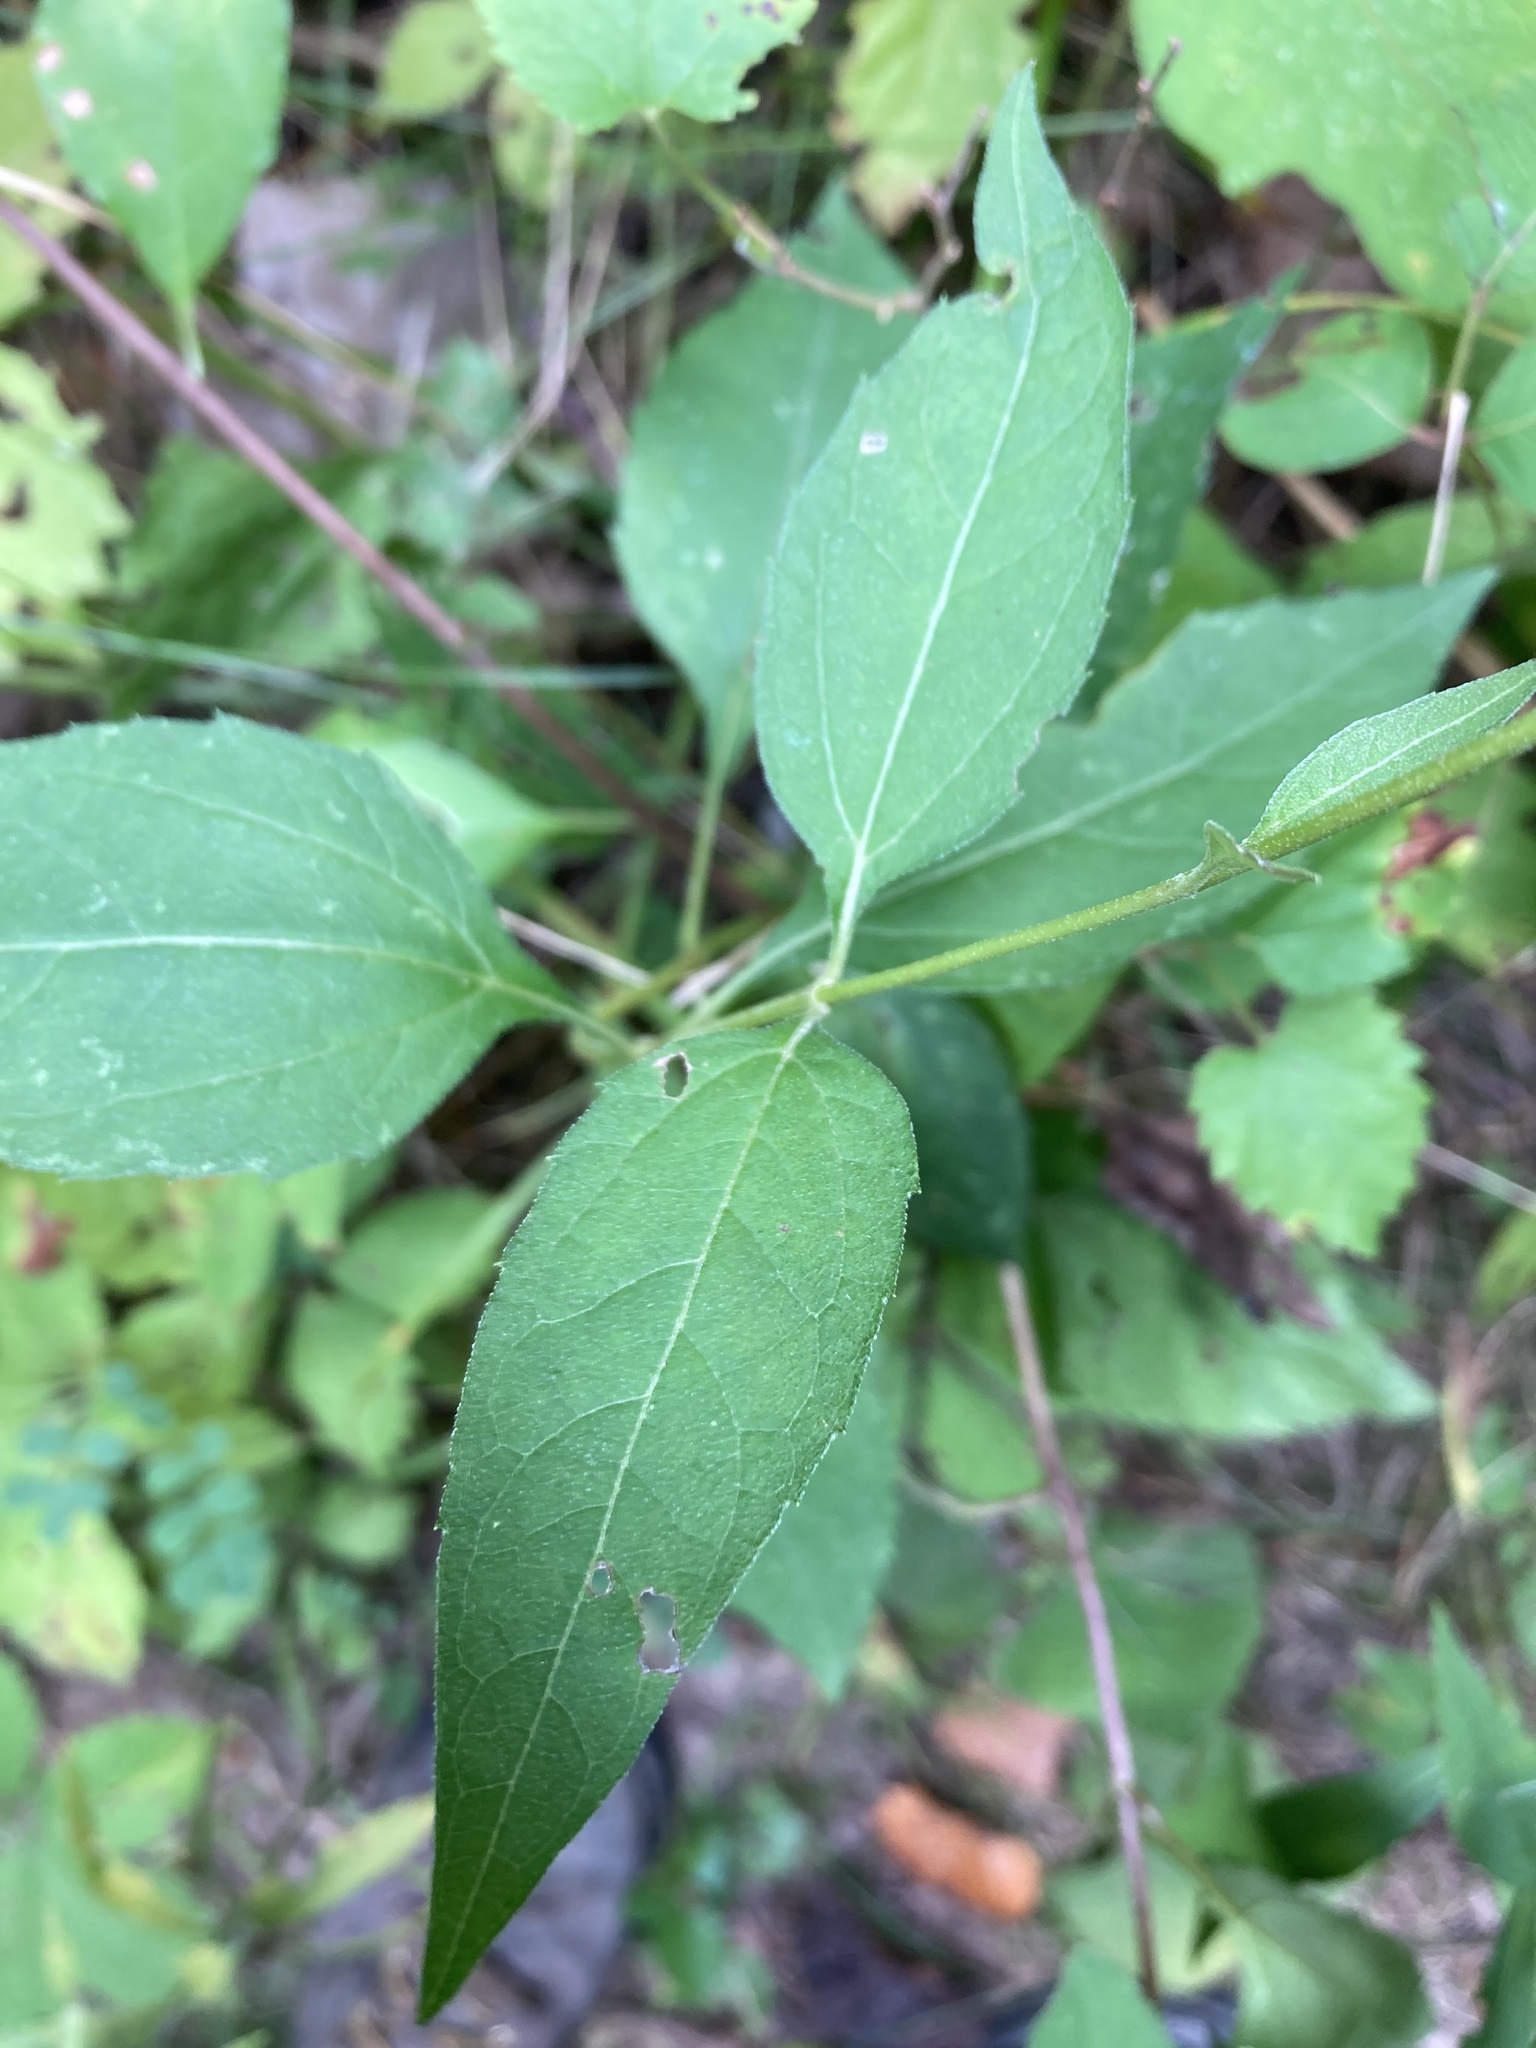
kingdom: Plantae
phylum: Tracheophyta
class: Magnoliopsida
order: Asterales
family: Asteraceae
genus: Heliopsis
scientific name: Heliopsis helianthoides
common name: False sunflower
